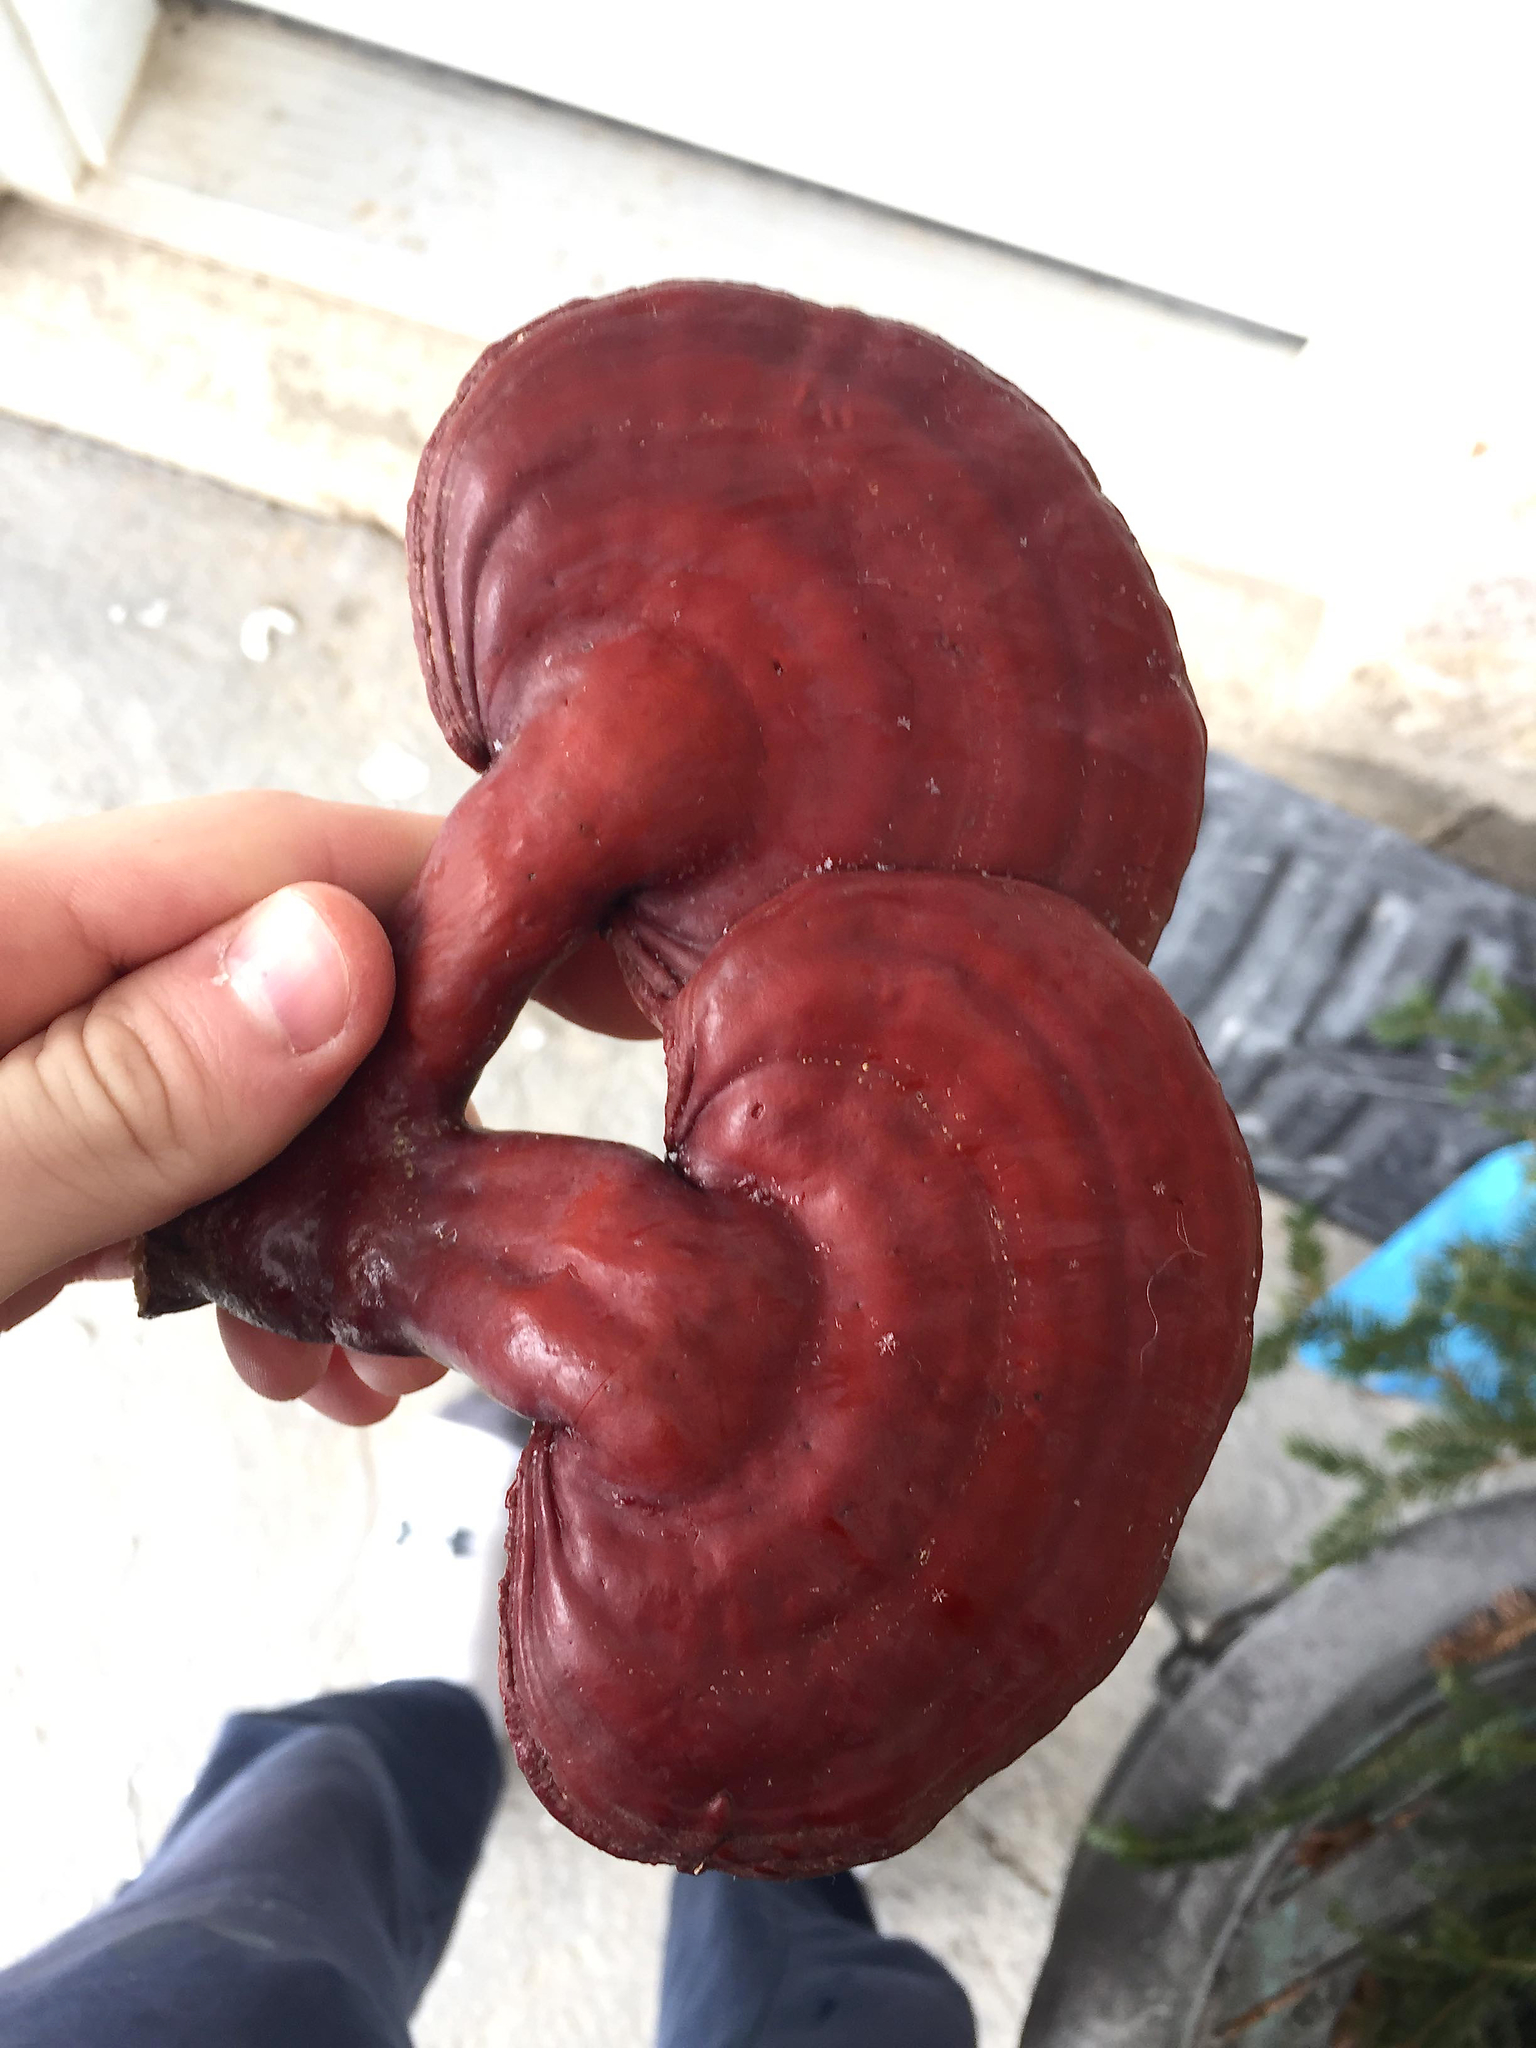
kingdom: Fungi
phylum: Basidiomycota
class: Agaricomycetes
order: Polyporales
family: Polyporaceae
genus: Ganoderma
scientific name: Ganoderma tsugae
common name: Hemlock varnish shelf
